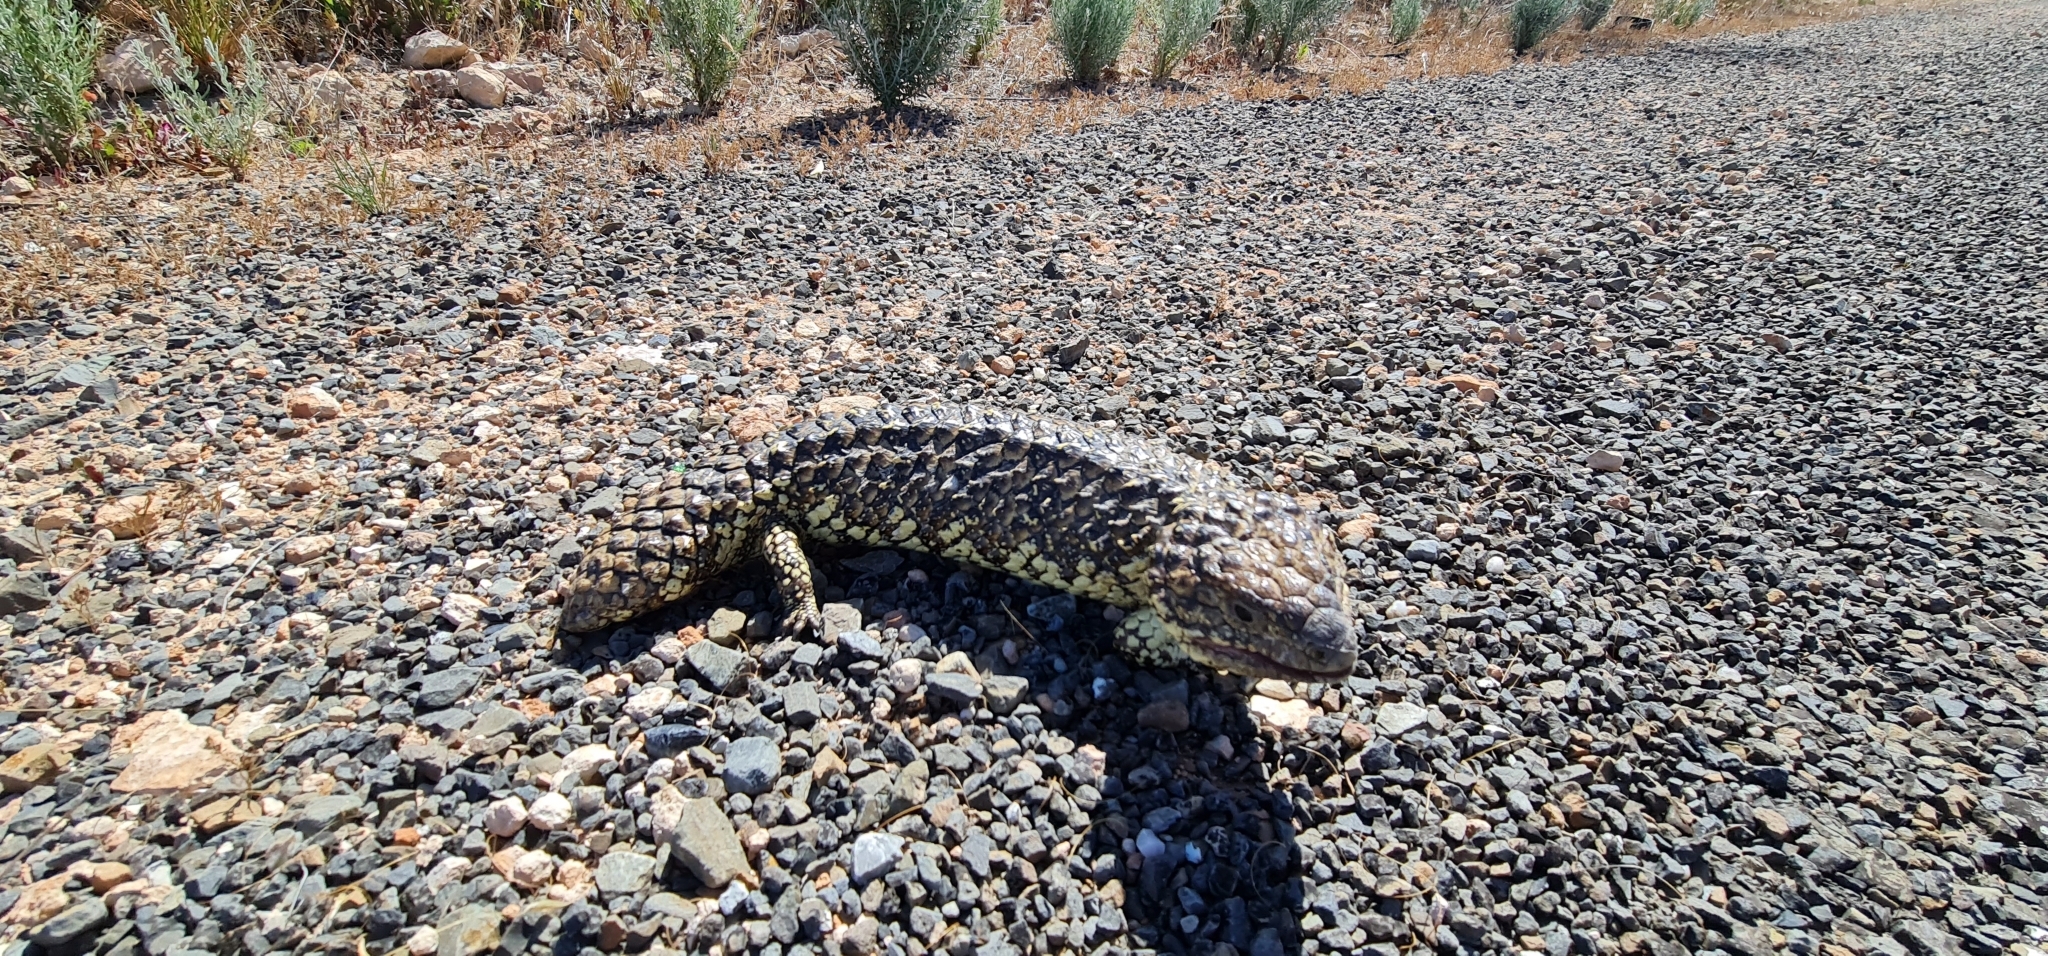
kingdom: Animalia
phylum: Chordata
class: Squamata
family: Scincidae
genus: Tiliqua
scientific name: Tiliqua rugosa
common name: Pinecone lizard
